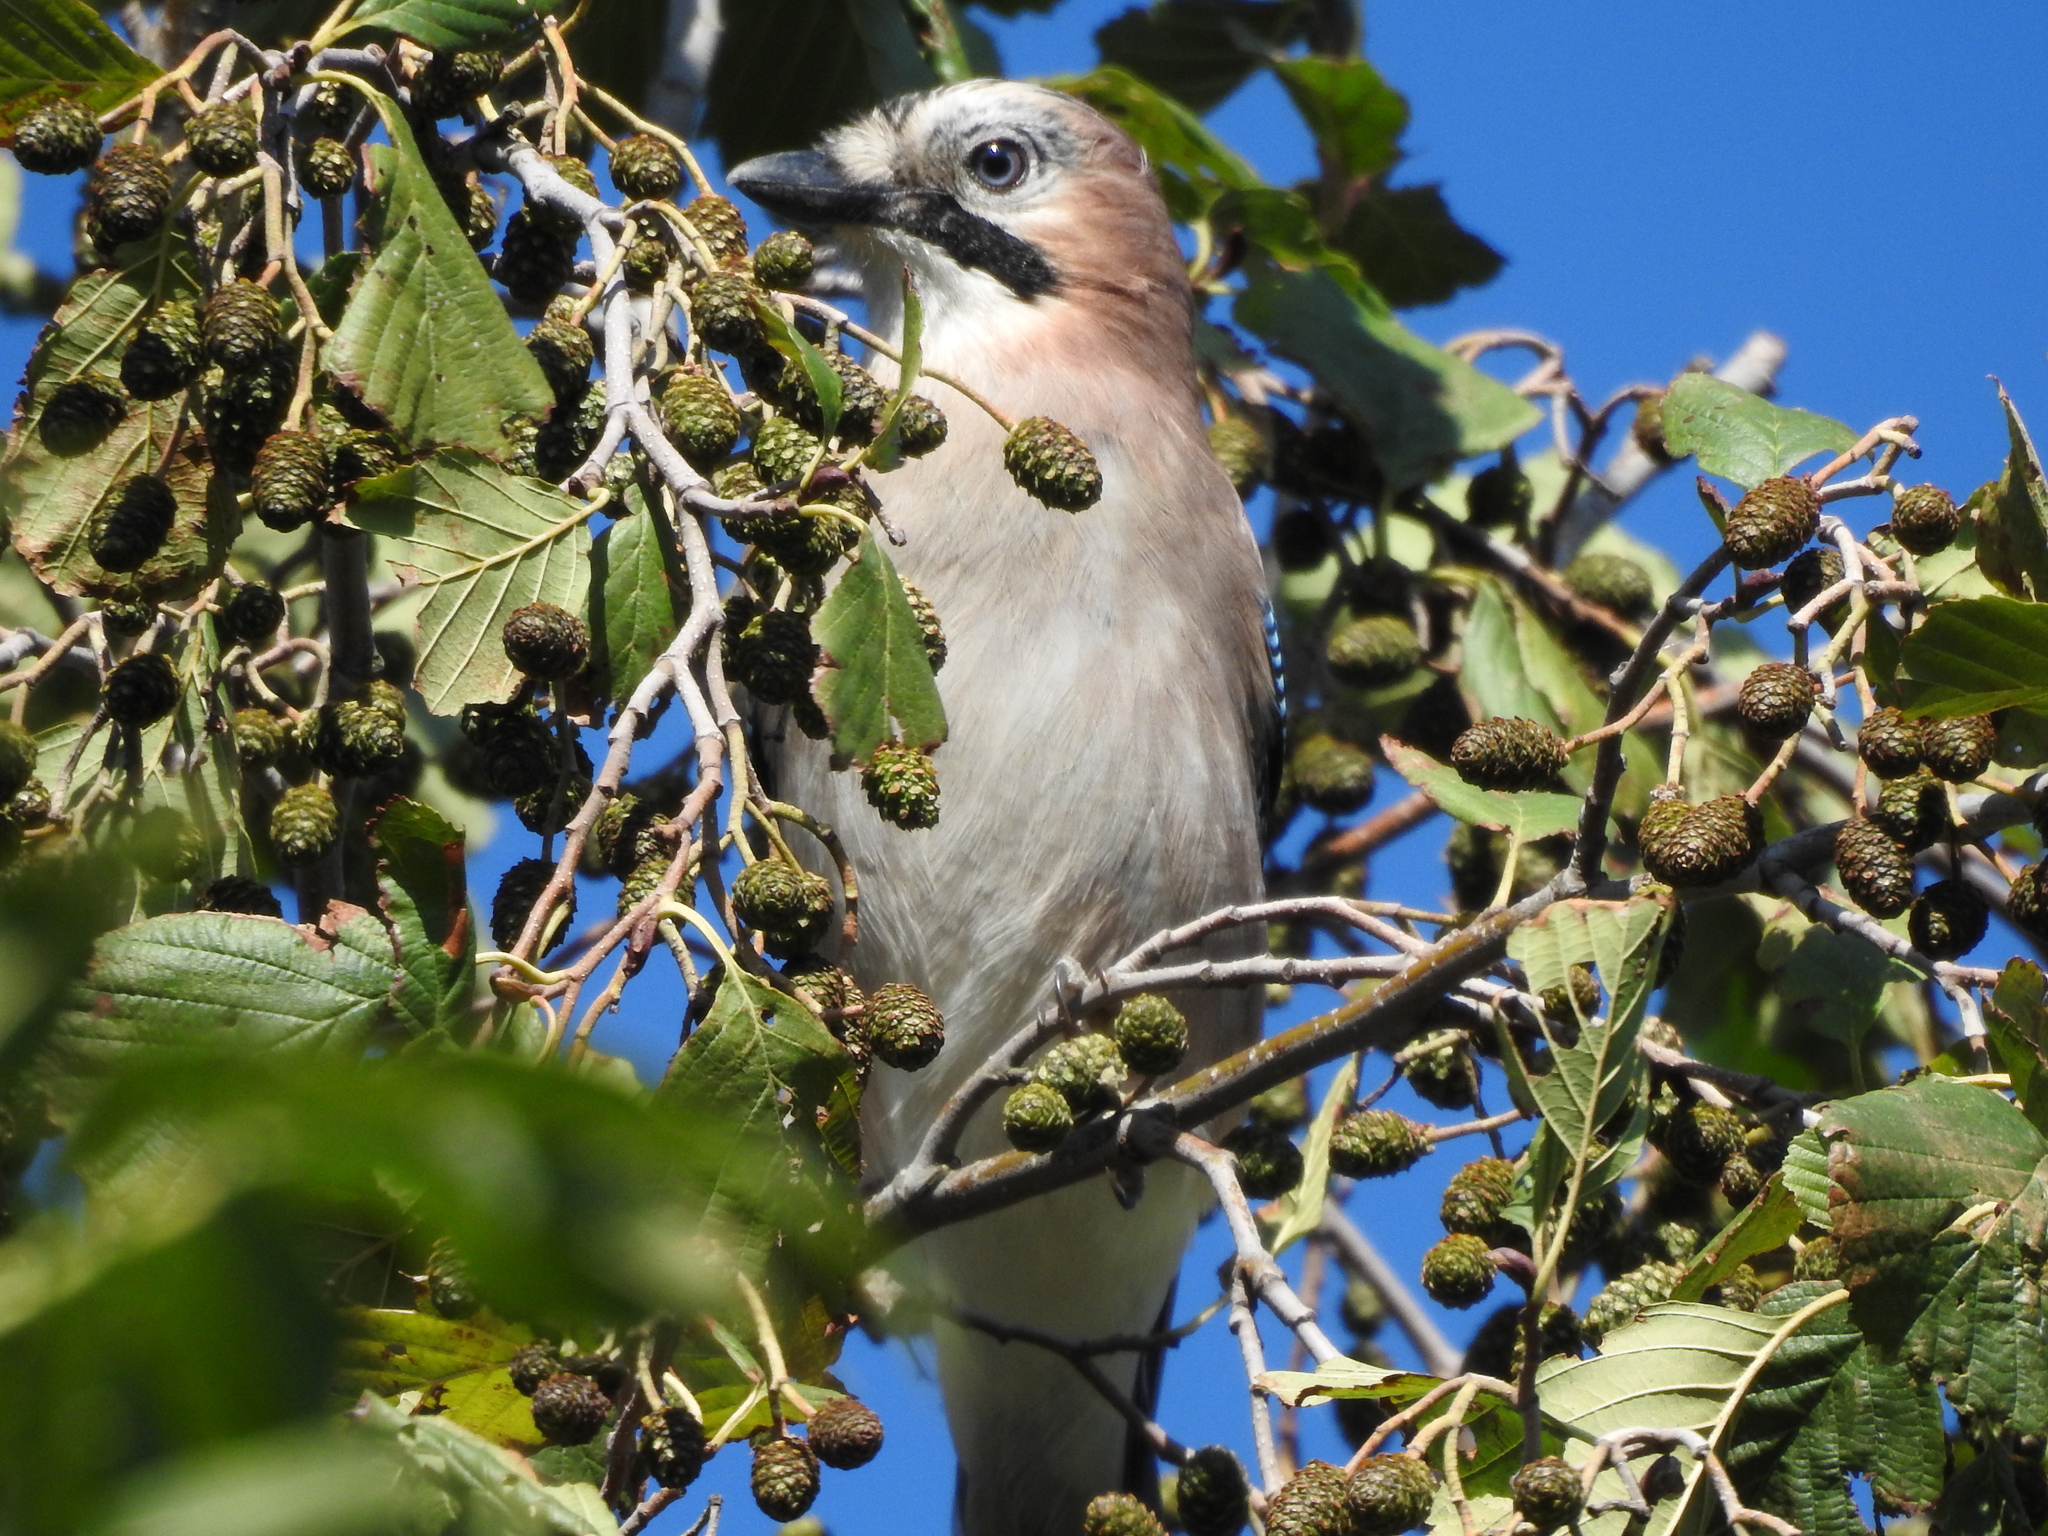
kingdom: Animalia
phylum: Chordata
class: Aves
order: Passeriformes
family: Corvidae
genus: Garrulus
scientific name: Garrulus glandarius
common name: Eurasian jay
